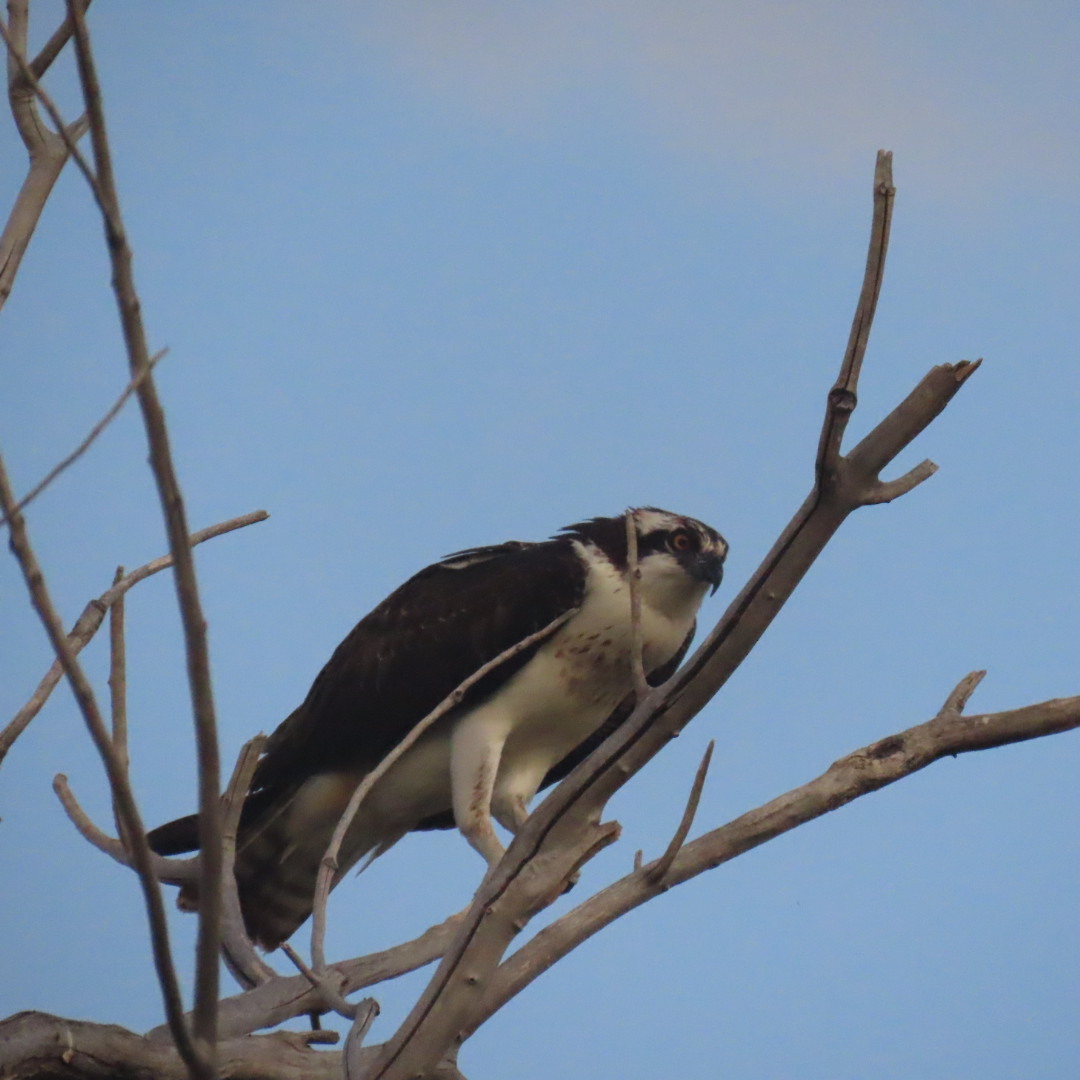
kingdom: Animalia
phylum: Chordata
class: Aves
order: Accipitriformes
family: Pandionidae
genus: Pandion
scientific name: Pandion haliaetus
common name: Osprey
